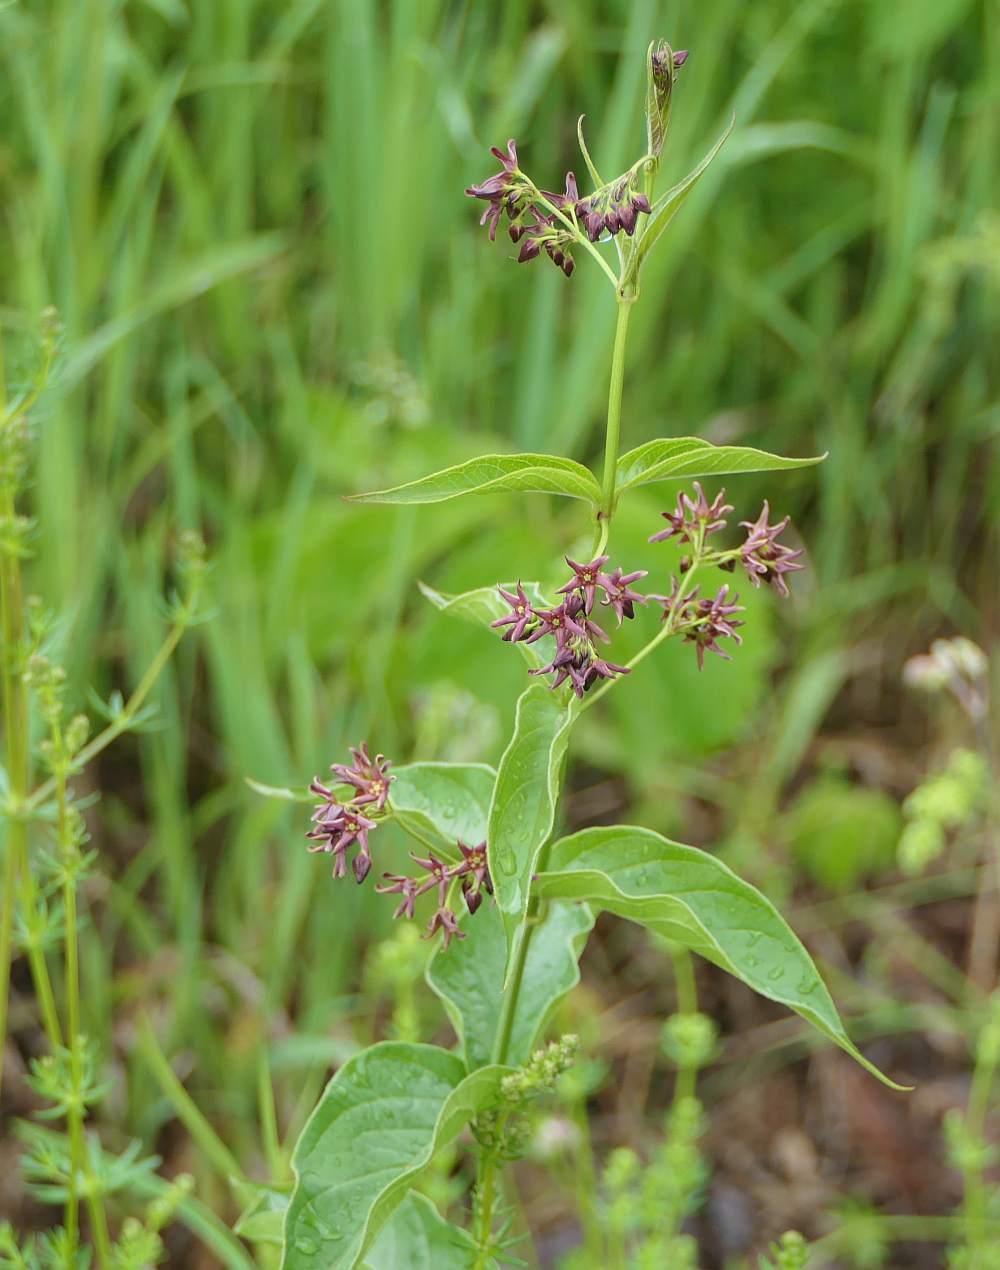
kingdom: Plantae
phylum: Tracheophyta
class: Magnoliopsida
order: Gentianales
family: Apocynaceae
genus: Vincetoxicum
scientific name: Vincetoxicum rossicum
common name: Dog-strangling vine
